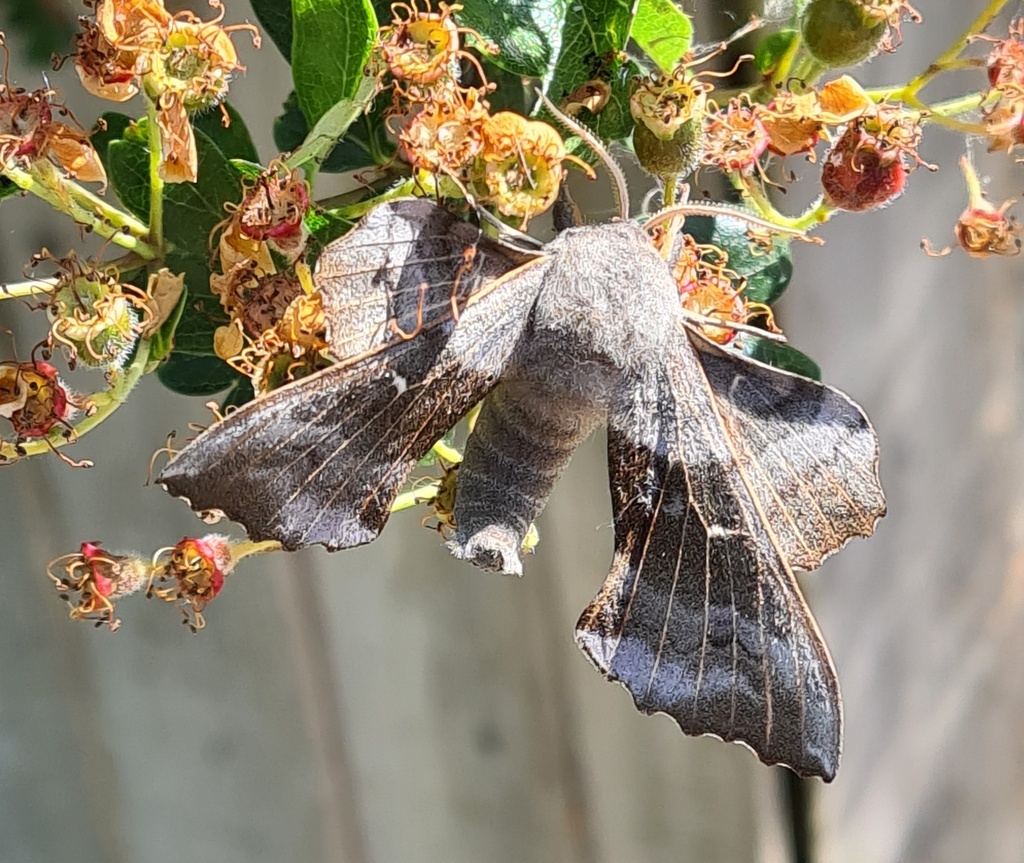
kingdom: Animalia
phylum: Arthropoda
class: Insecta
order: Lepidoptera
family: Sphingidae
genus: Laothoe
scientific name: Laothoe populi
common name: Poplar hawk-moth
